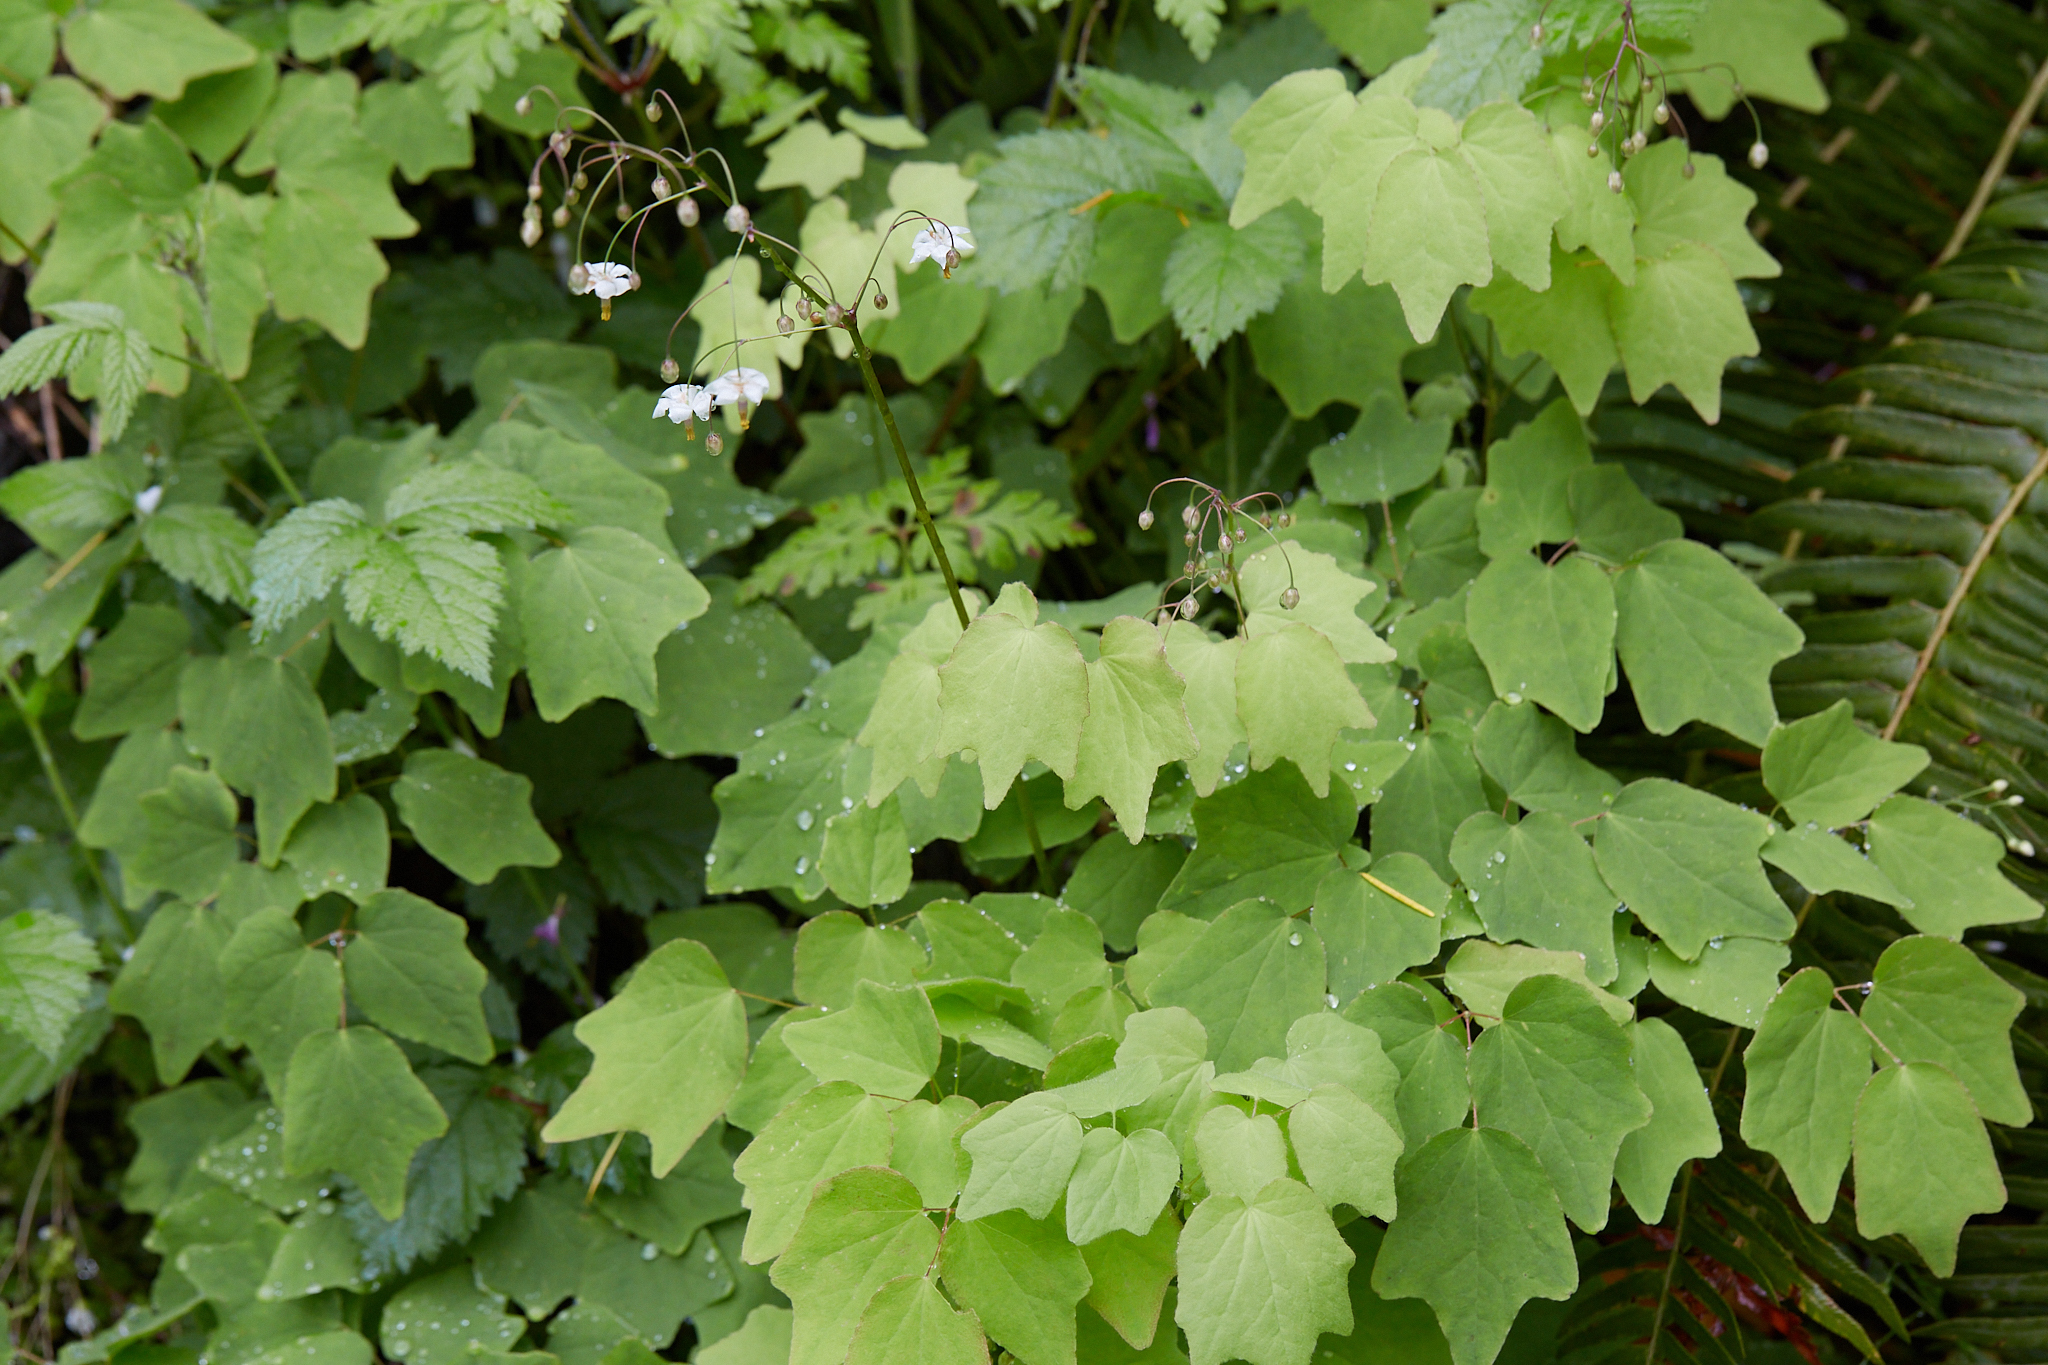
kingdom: Plantae
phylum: Tracheophyta
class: Magnoliopsida
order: Ranunculales
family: Berberidaceae
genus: Vancouveria
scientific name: Vancouveria hexandra
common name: Northern inside-out-flower
